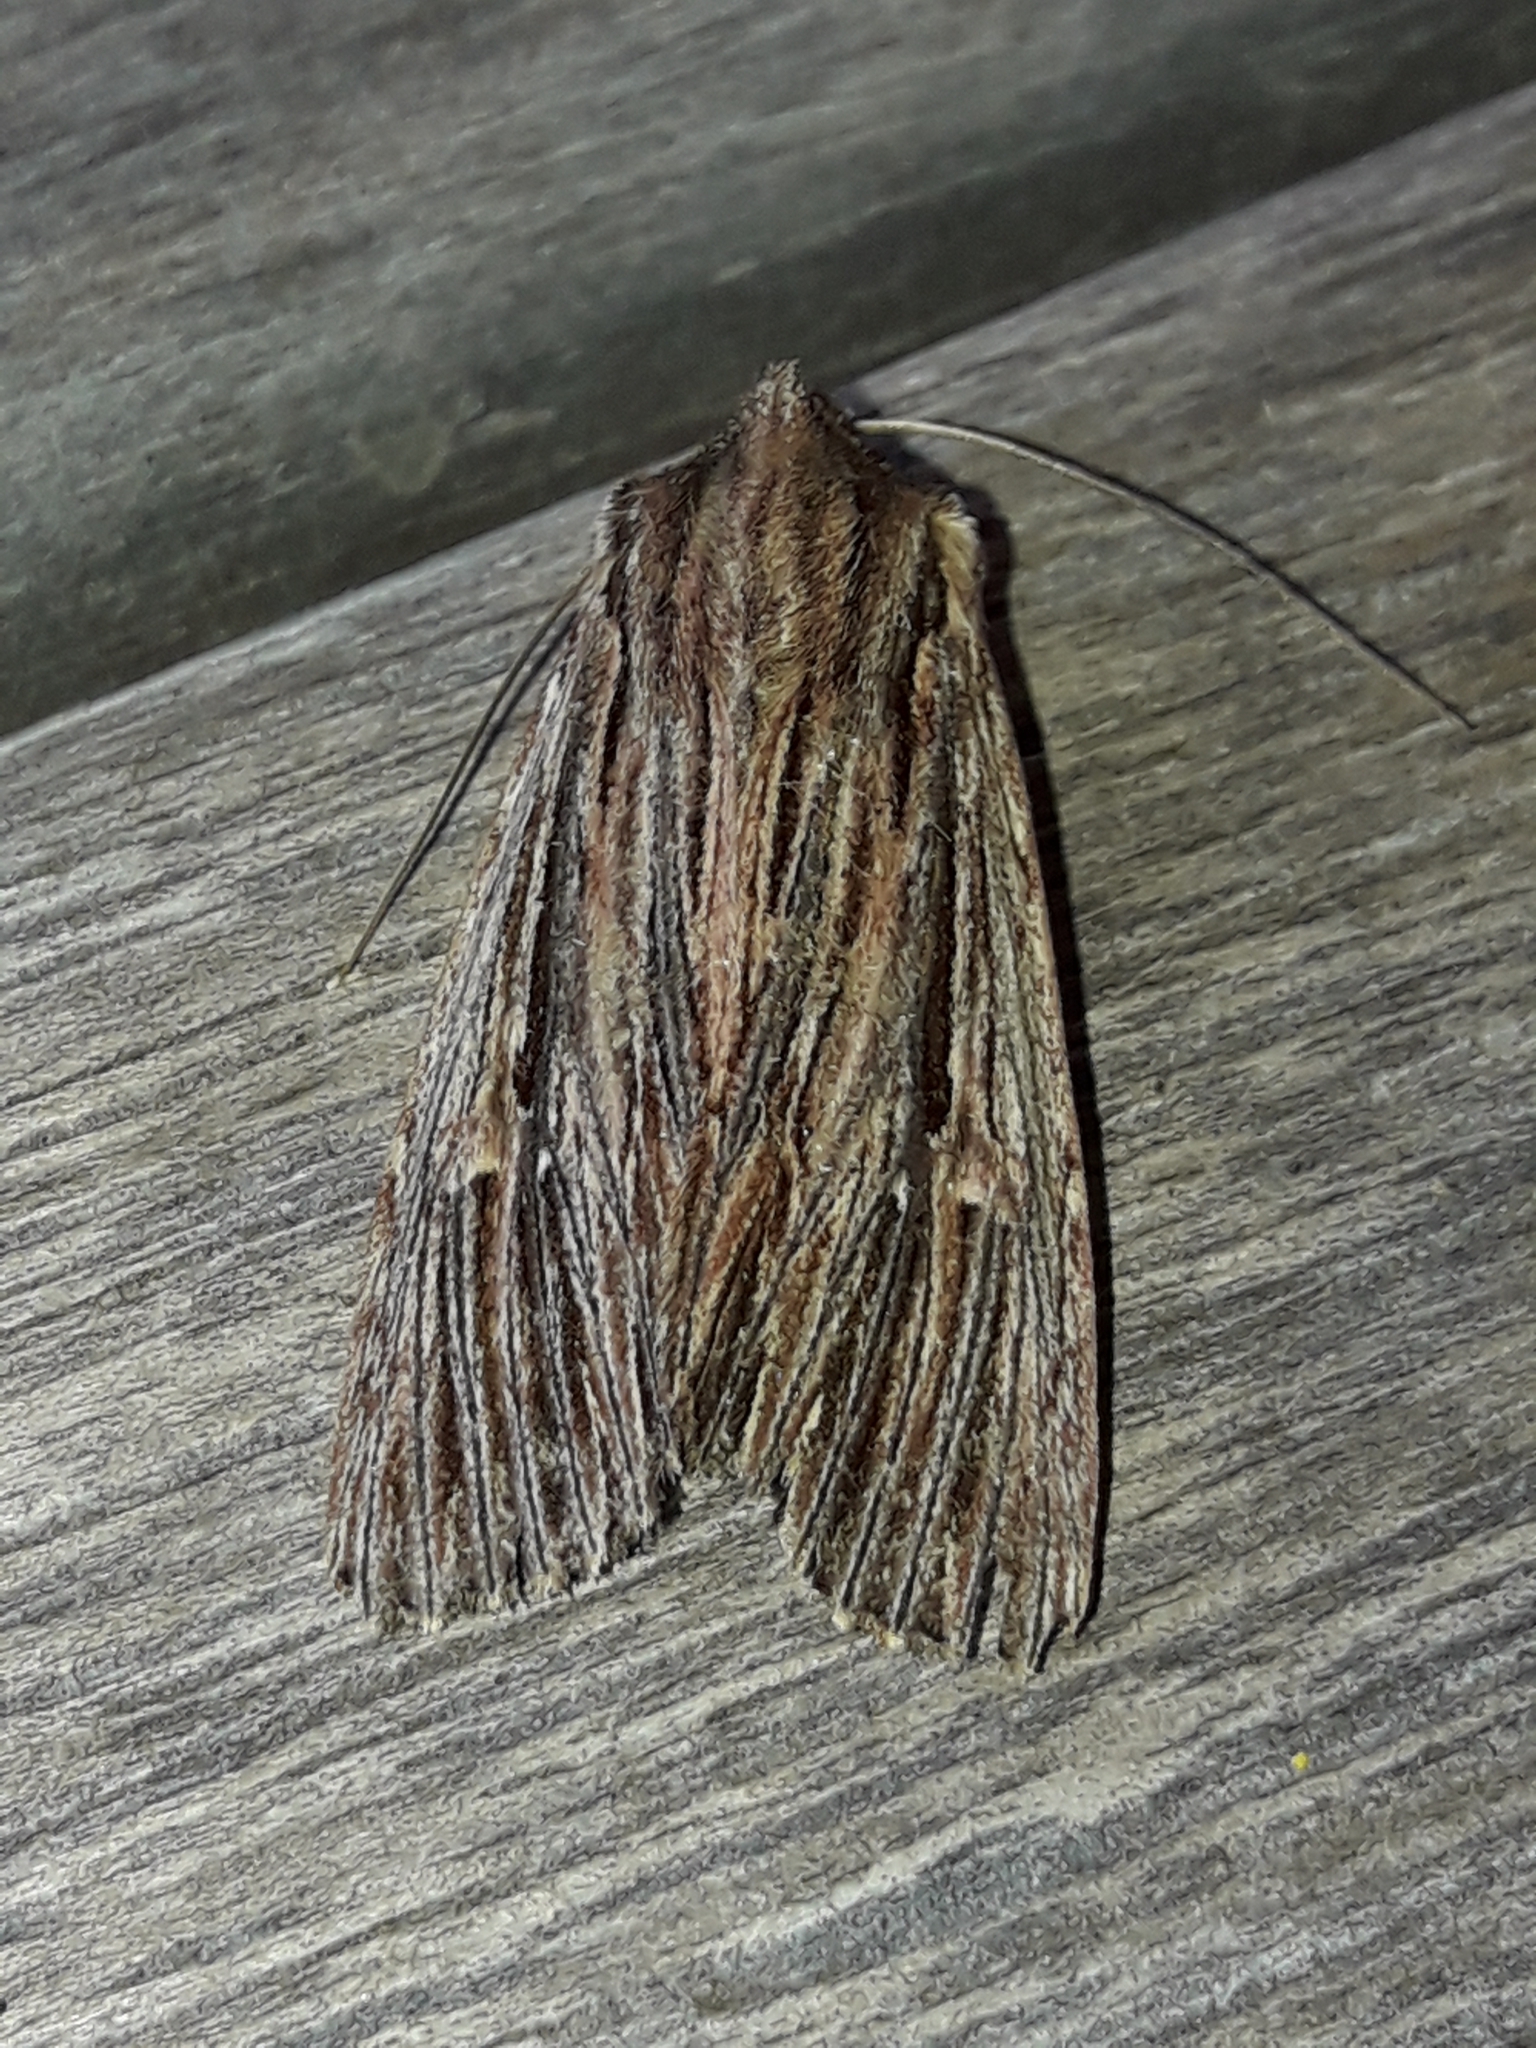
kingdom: Animalia
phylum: Arthropoda
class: Insecta
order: Lepidoptera
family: Noctuidae
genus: Ichneutica
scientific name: Ichneutica
